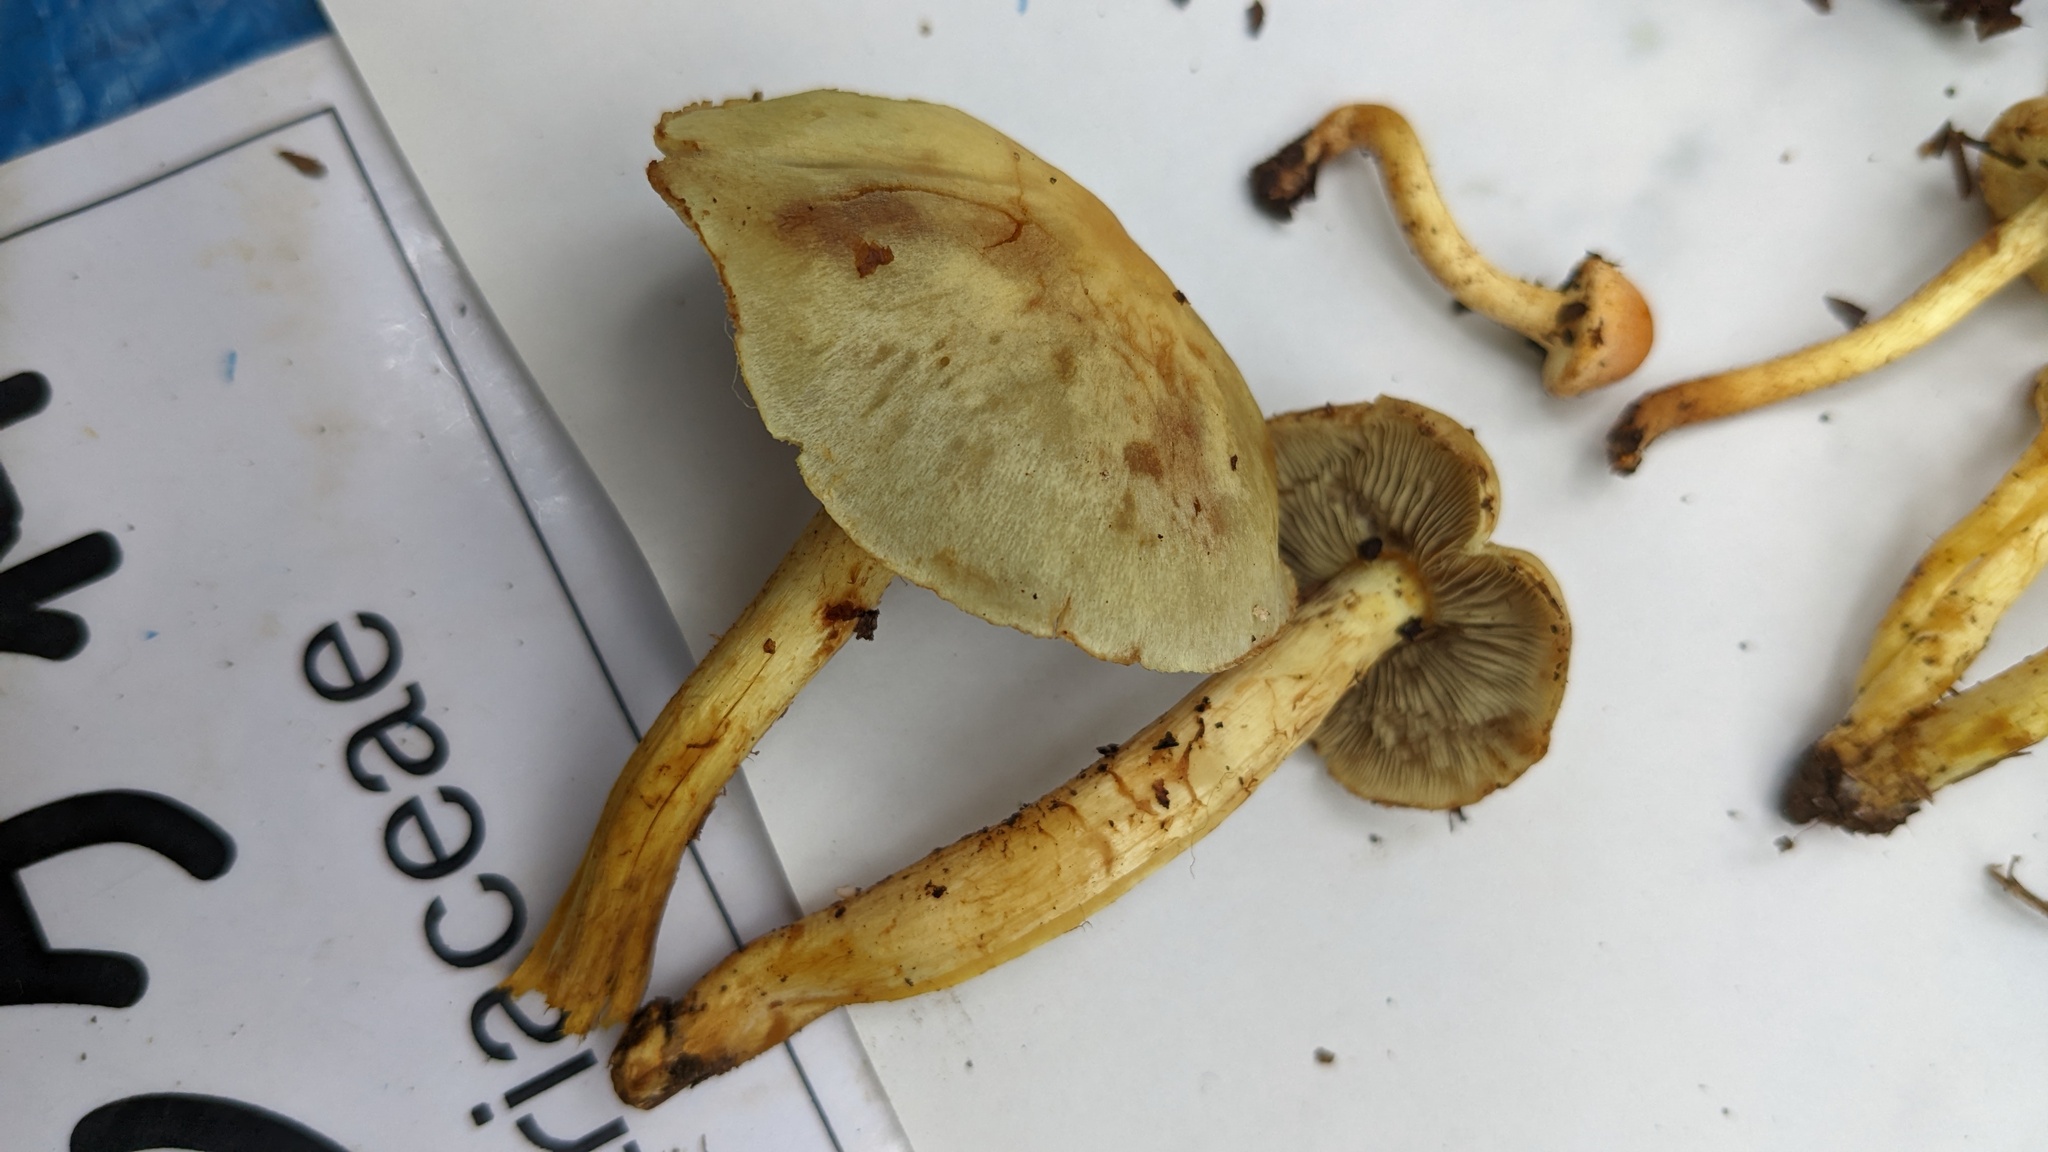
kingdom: Fungi
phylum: Basidiomycota
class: Agaricomycetes
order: Agaricales
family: Strophariaceae
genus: Hypholoma
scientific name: Hypholoma fasciculare
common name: Sulphur tuft
